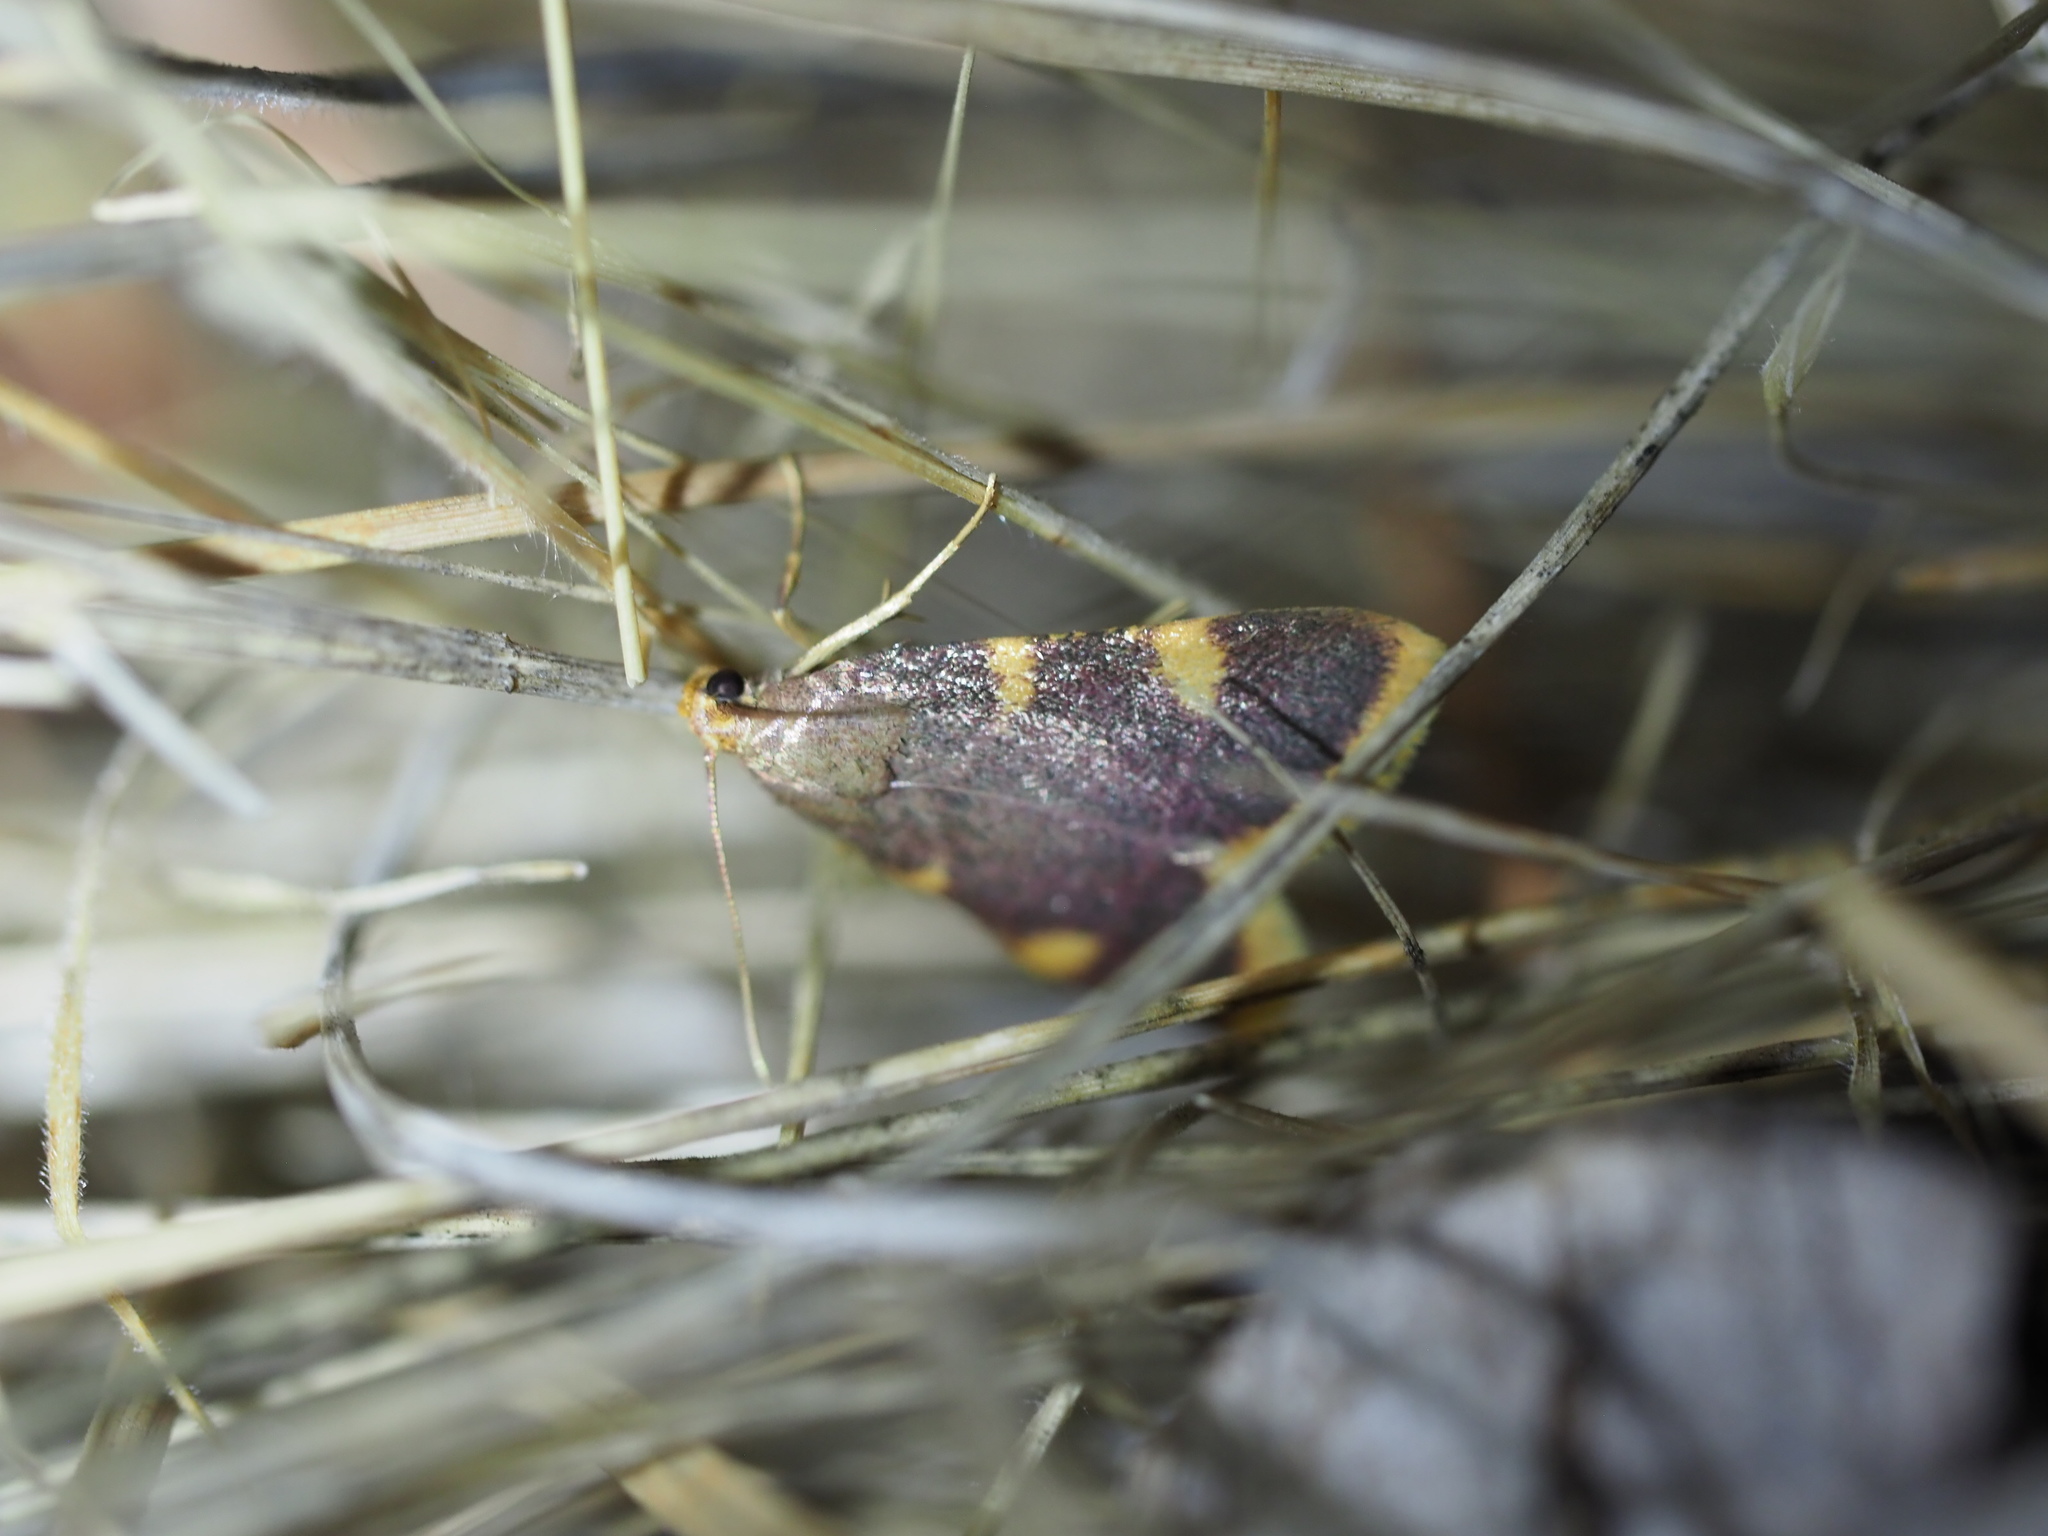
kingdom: Animalia
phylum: Arthropoda
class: Insecta
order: Lepidoptera
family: Pyralidae
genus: Hypsopygia
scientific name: Hypsopygia costalis
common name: Gold triangle
